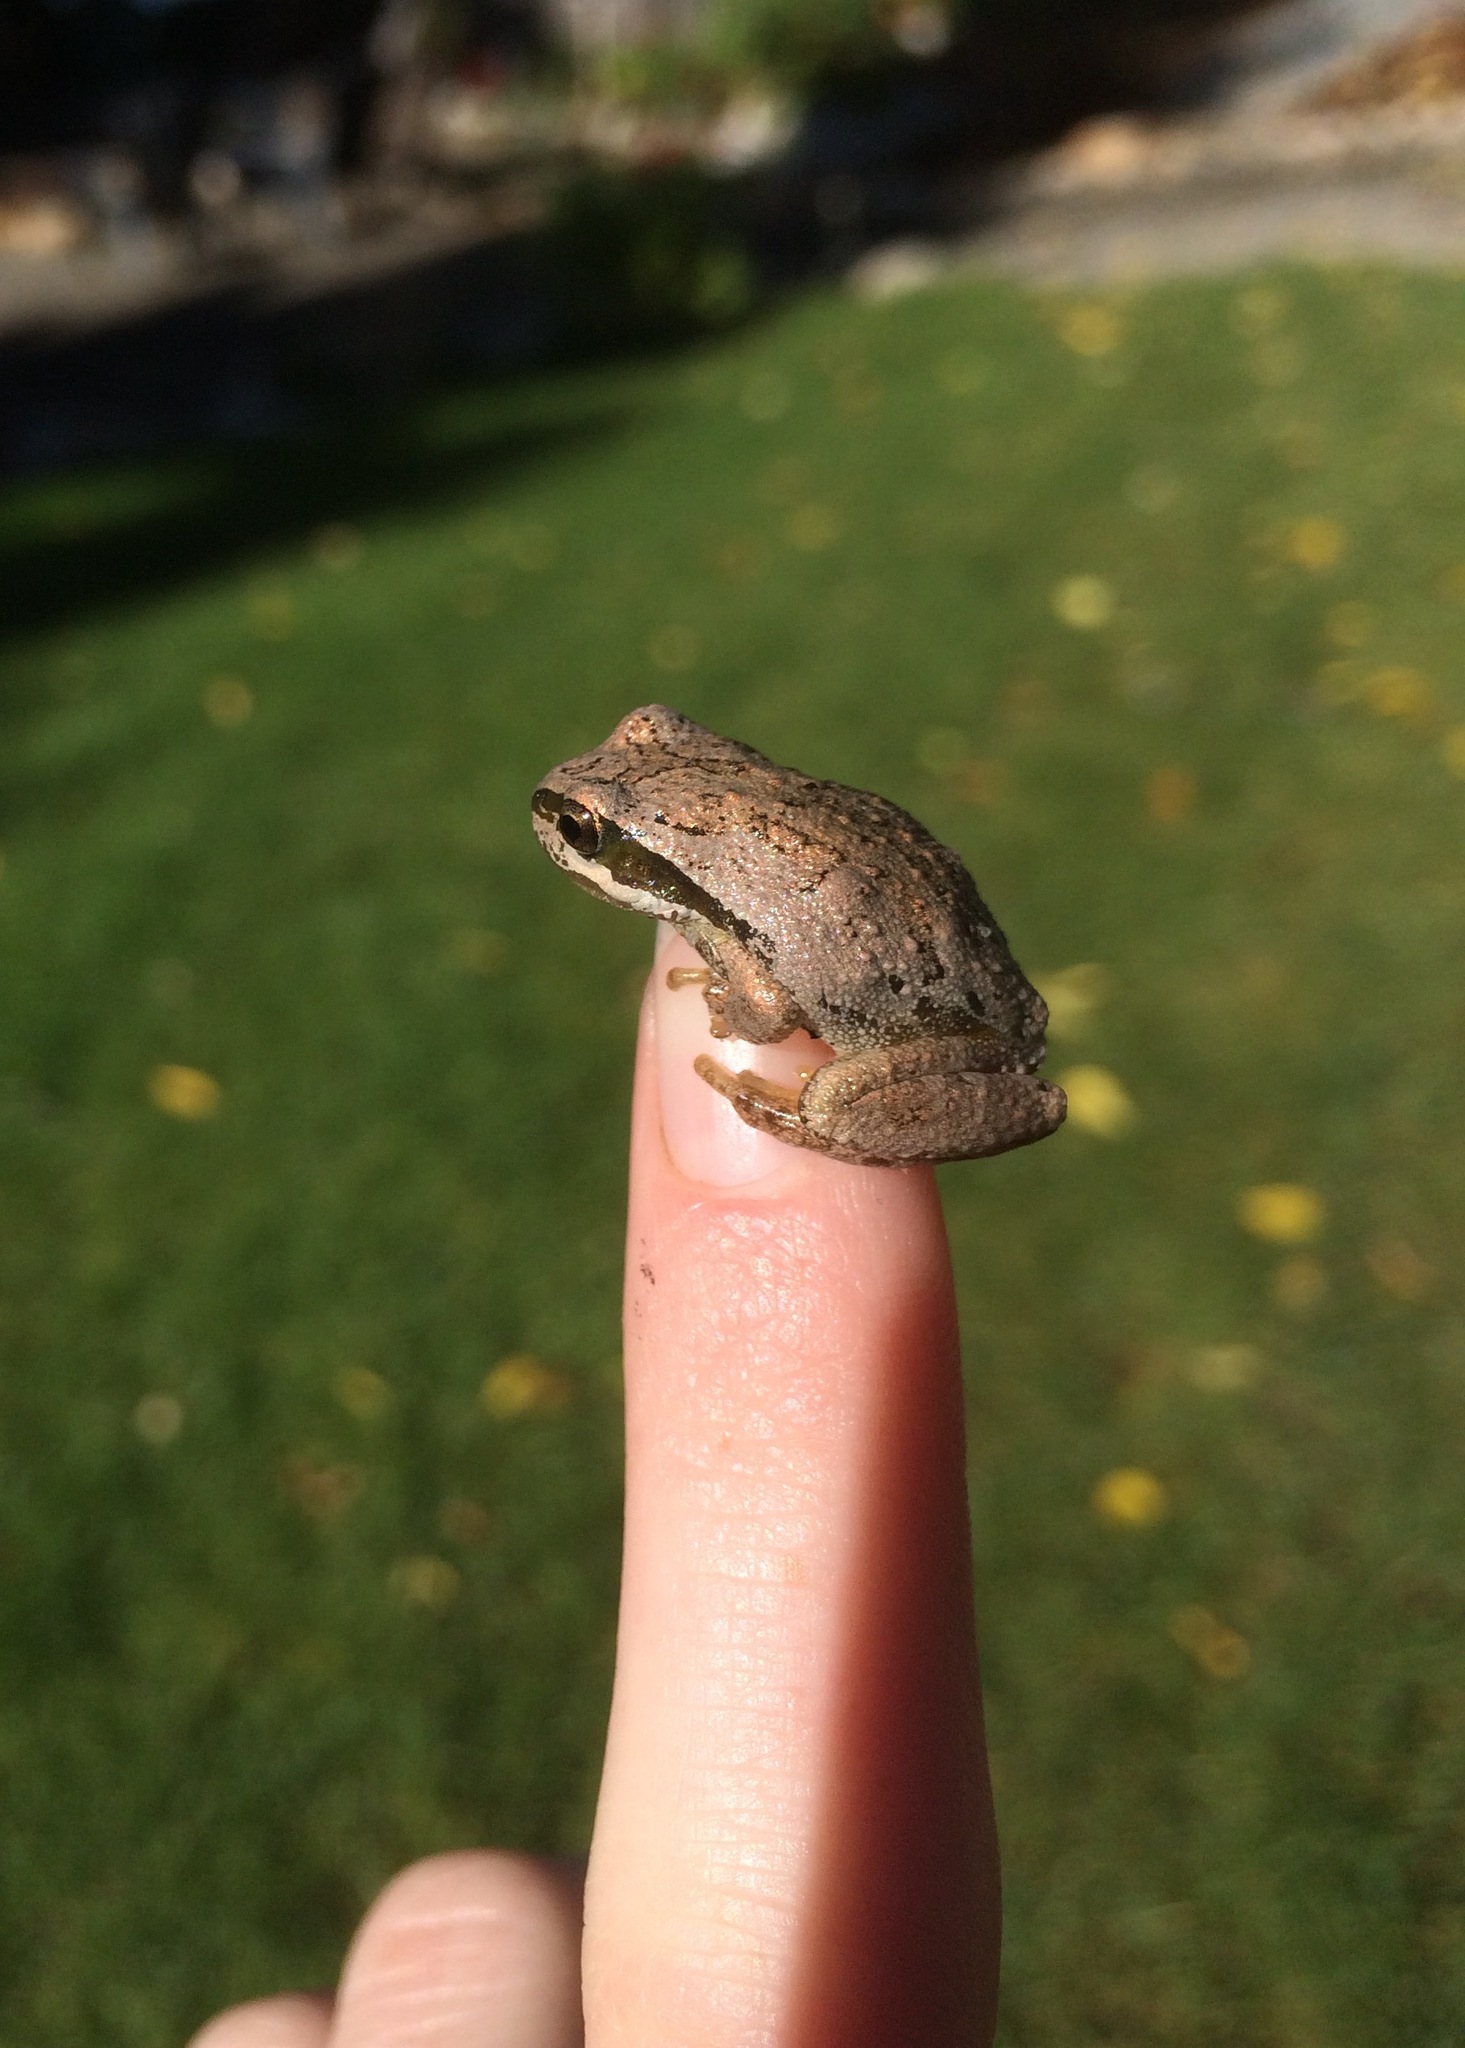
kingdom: Animalia
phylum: Chordata
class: Amphibia
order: Anura
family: Hylidae
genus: Pseudacris
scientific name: Pseudacris regilla
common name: Pacific chorus frog
